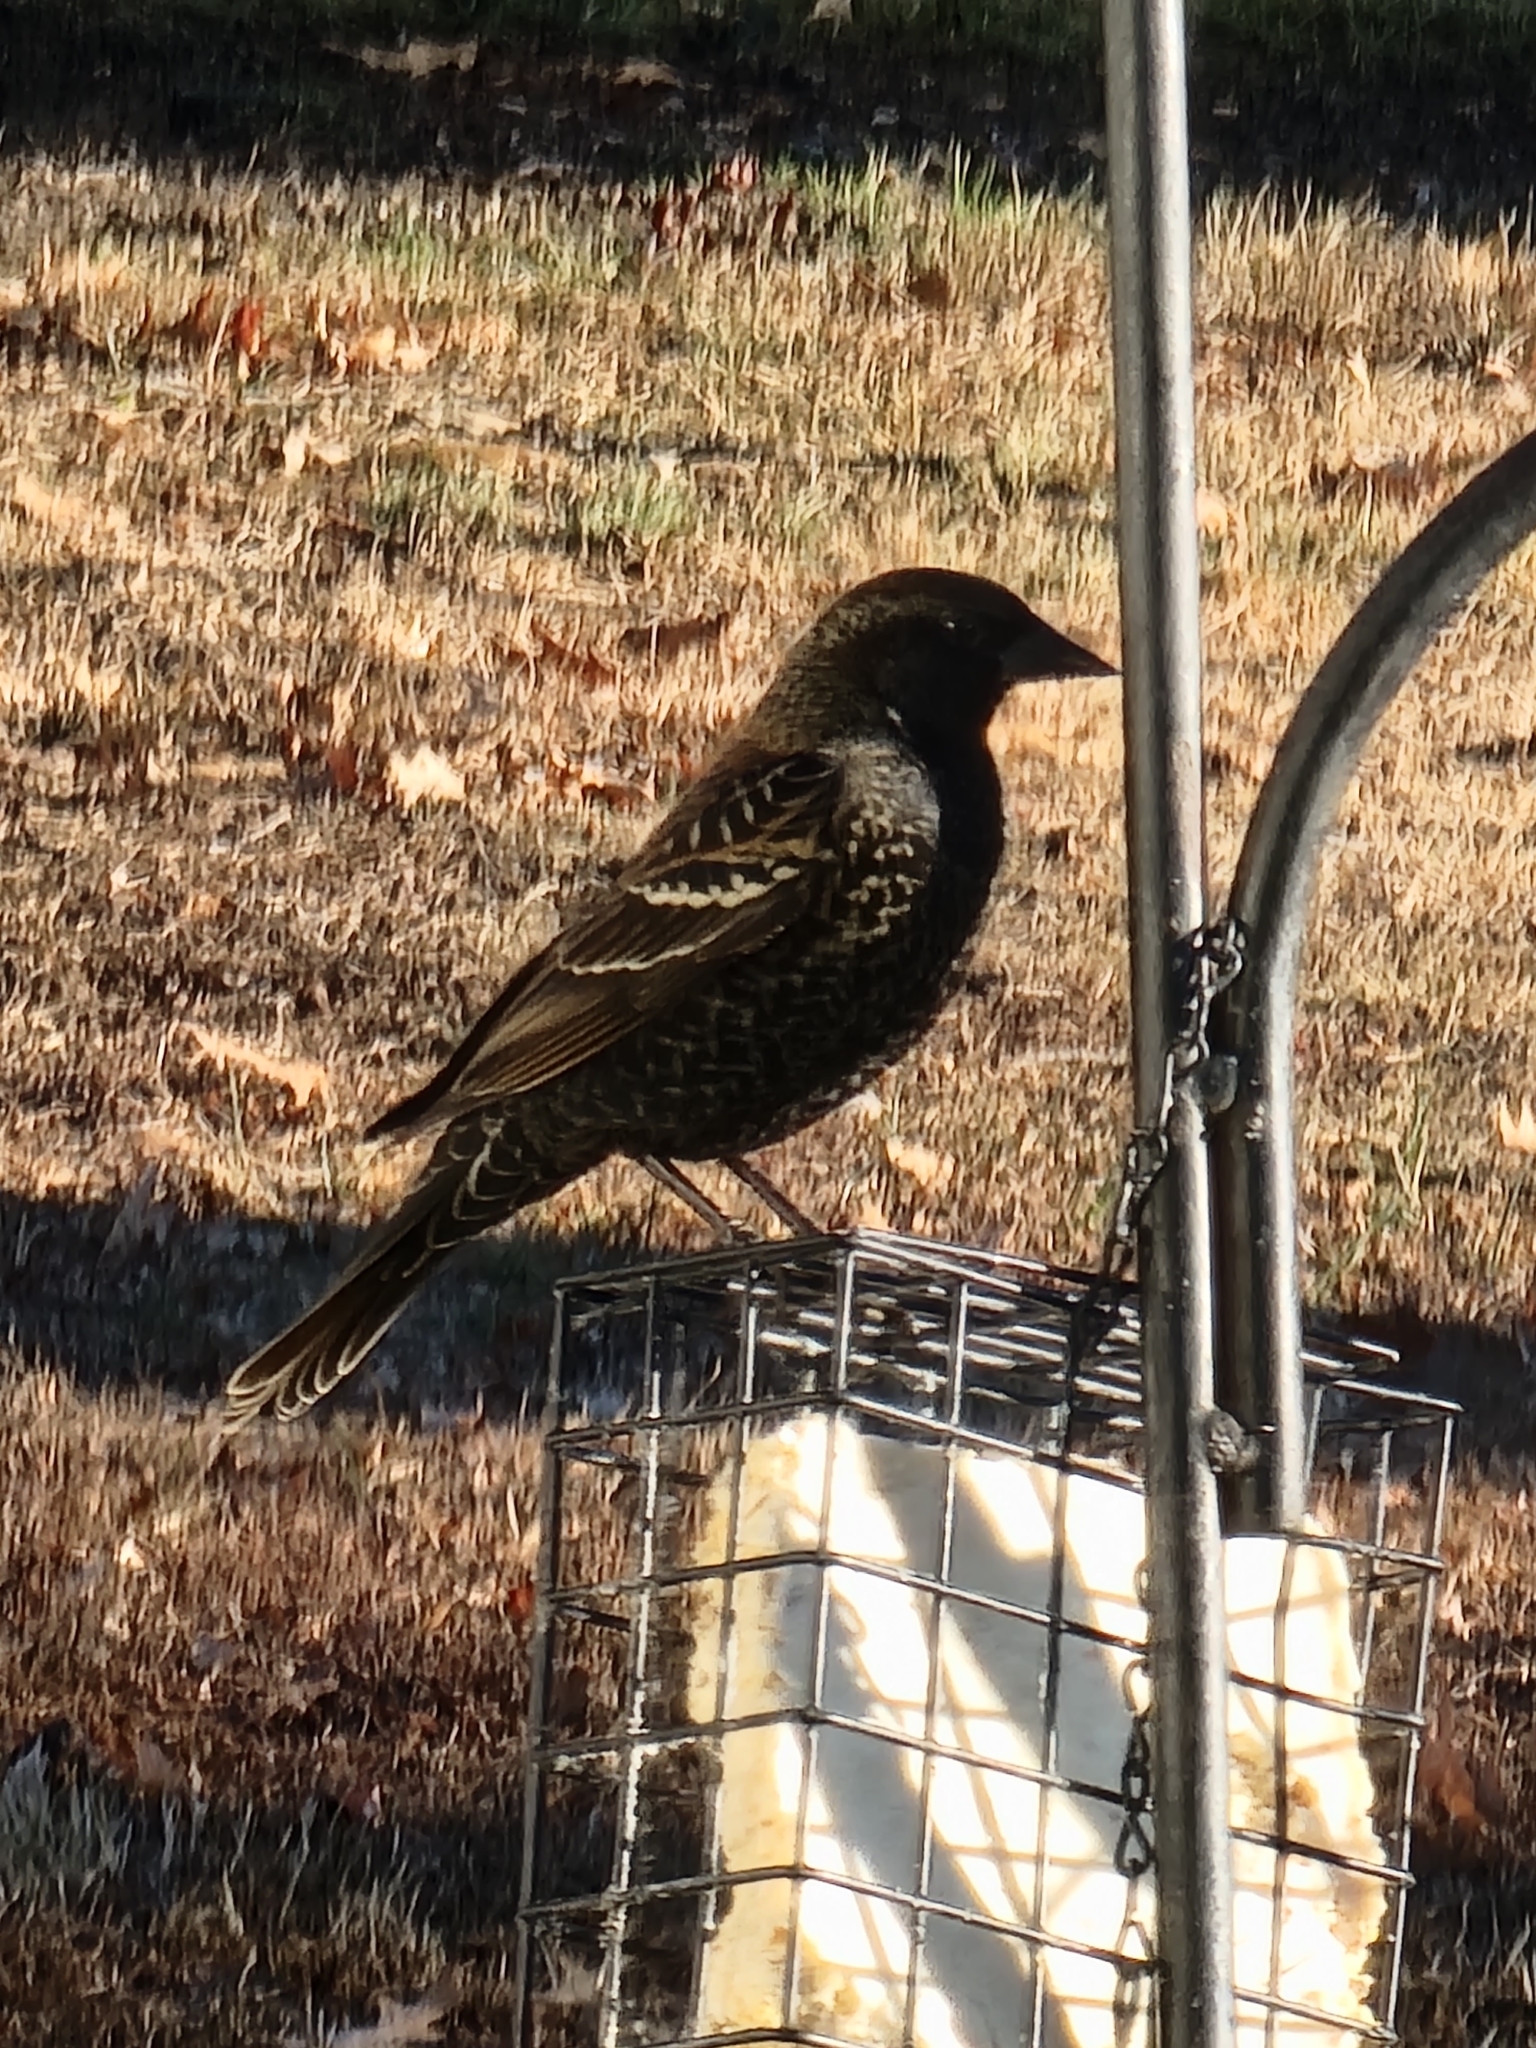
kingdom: Animalia
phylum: Chordata
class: Aves
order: Passeriformes
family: Icteridae
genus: Agelaius
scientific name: Agelaius phoeniceus
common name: Red-winged blackbird
